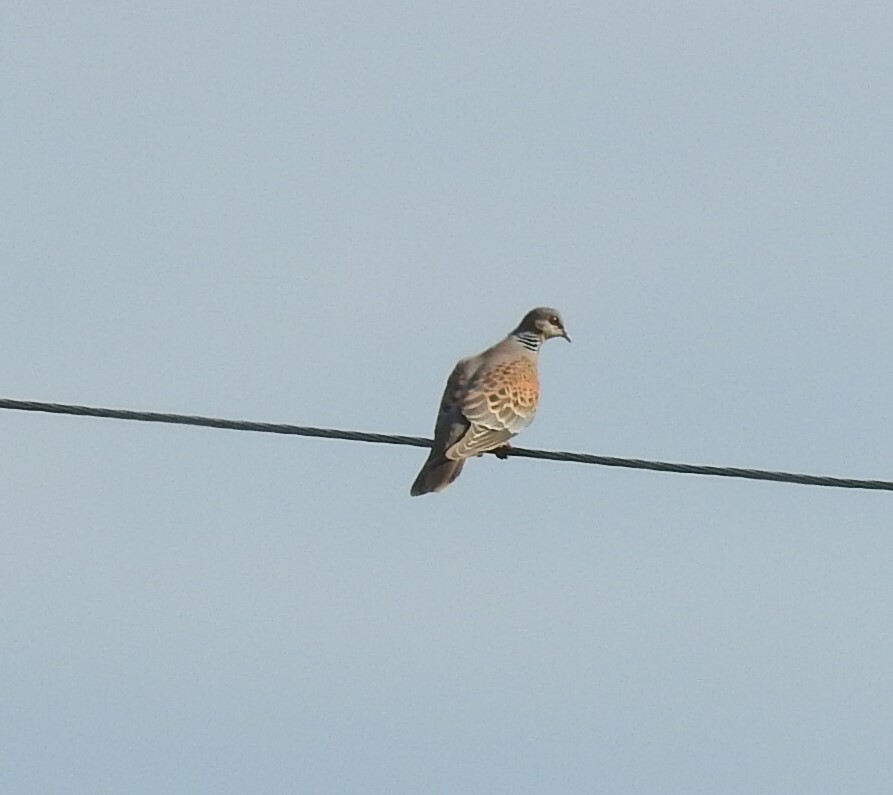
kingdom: Animalia
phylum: Chordata
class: Aves
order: Columbiformes
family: Columbidae
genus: Streptopelia
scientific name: Streptopelia orientalis
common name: Oriental turtle dove
